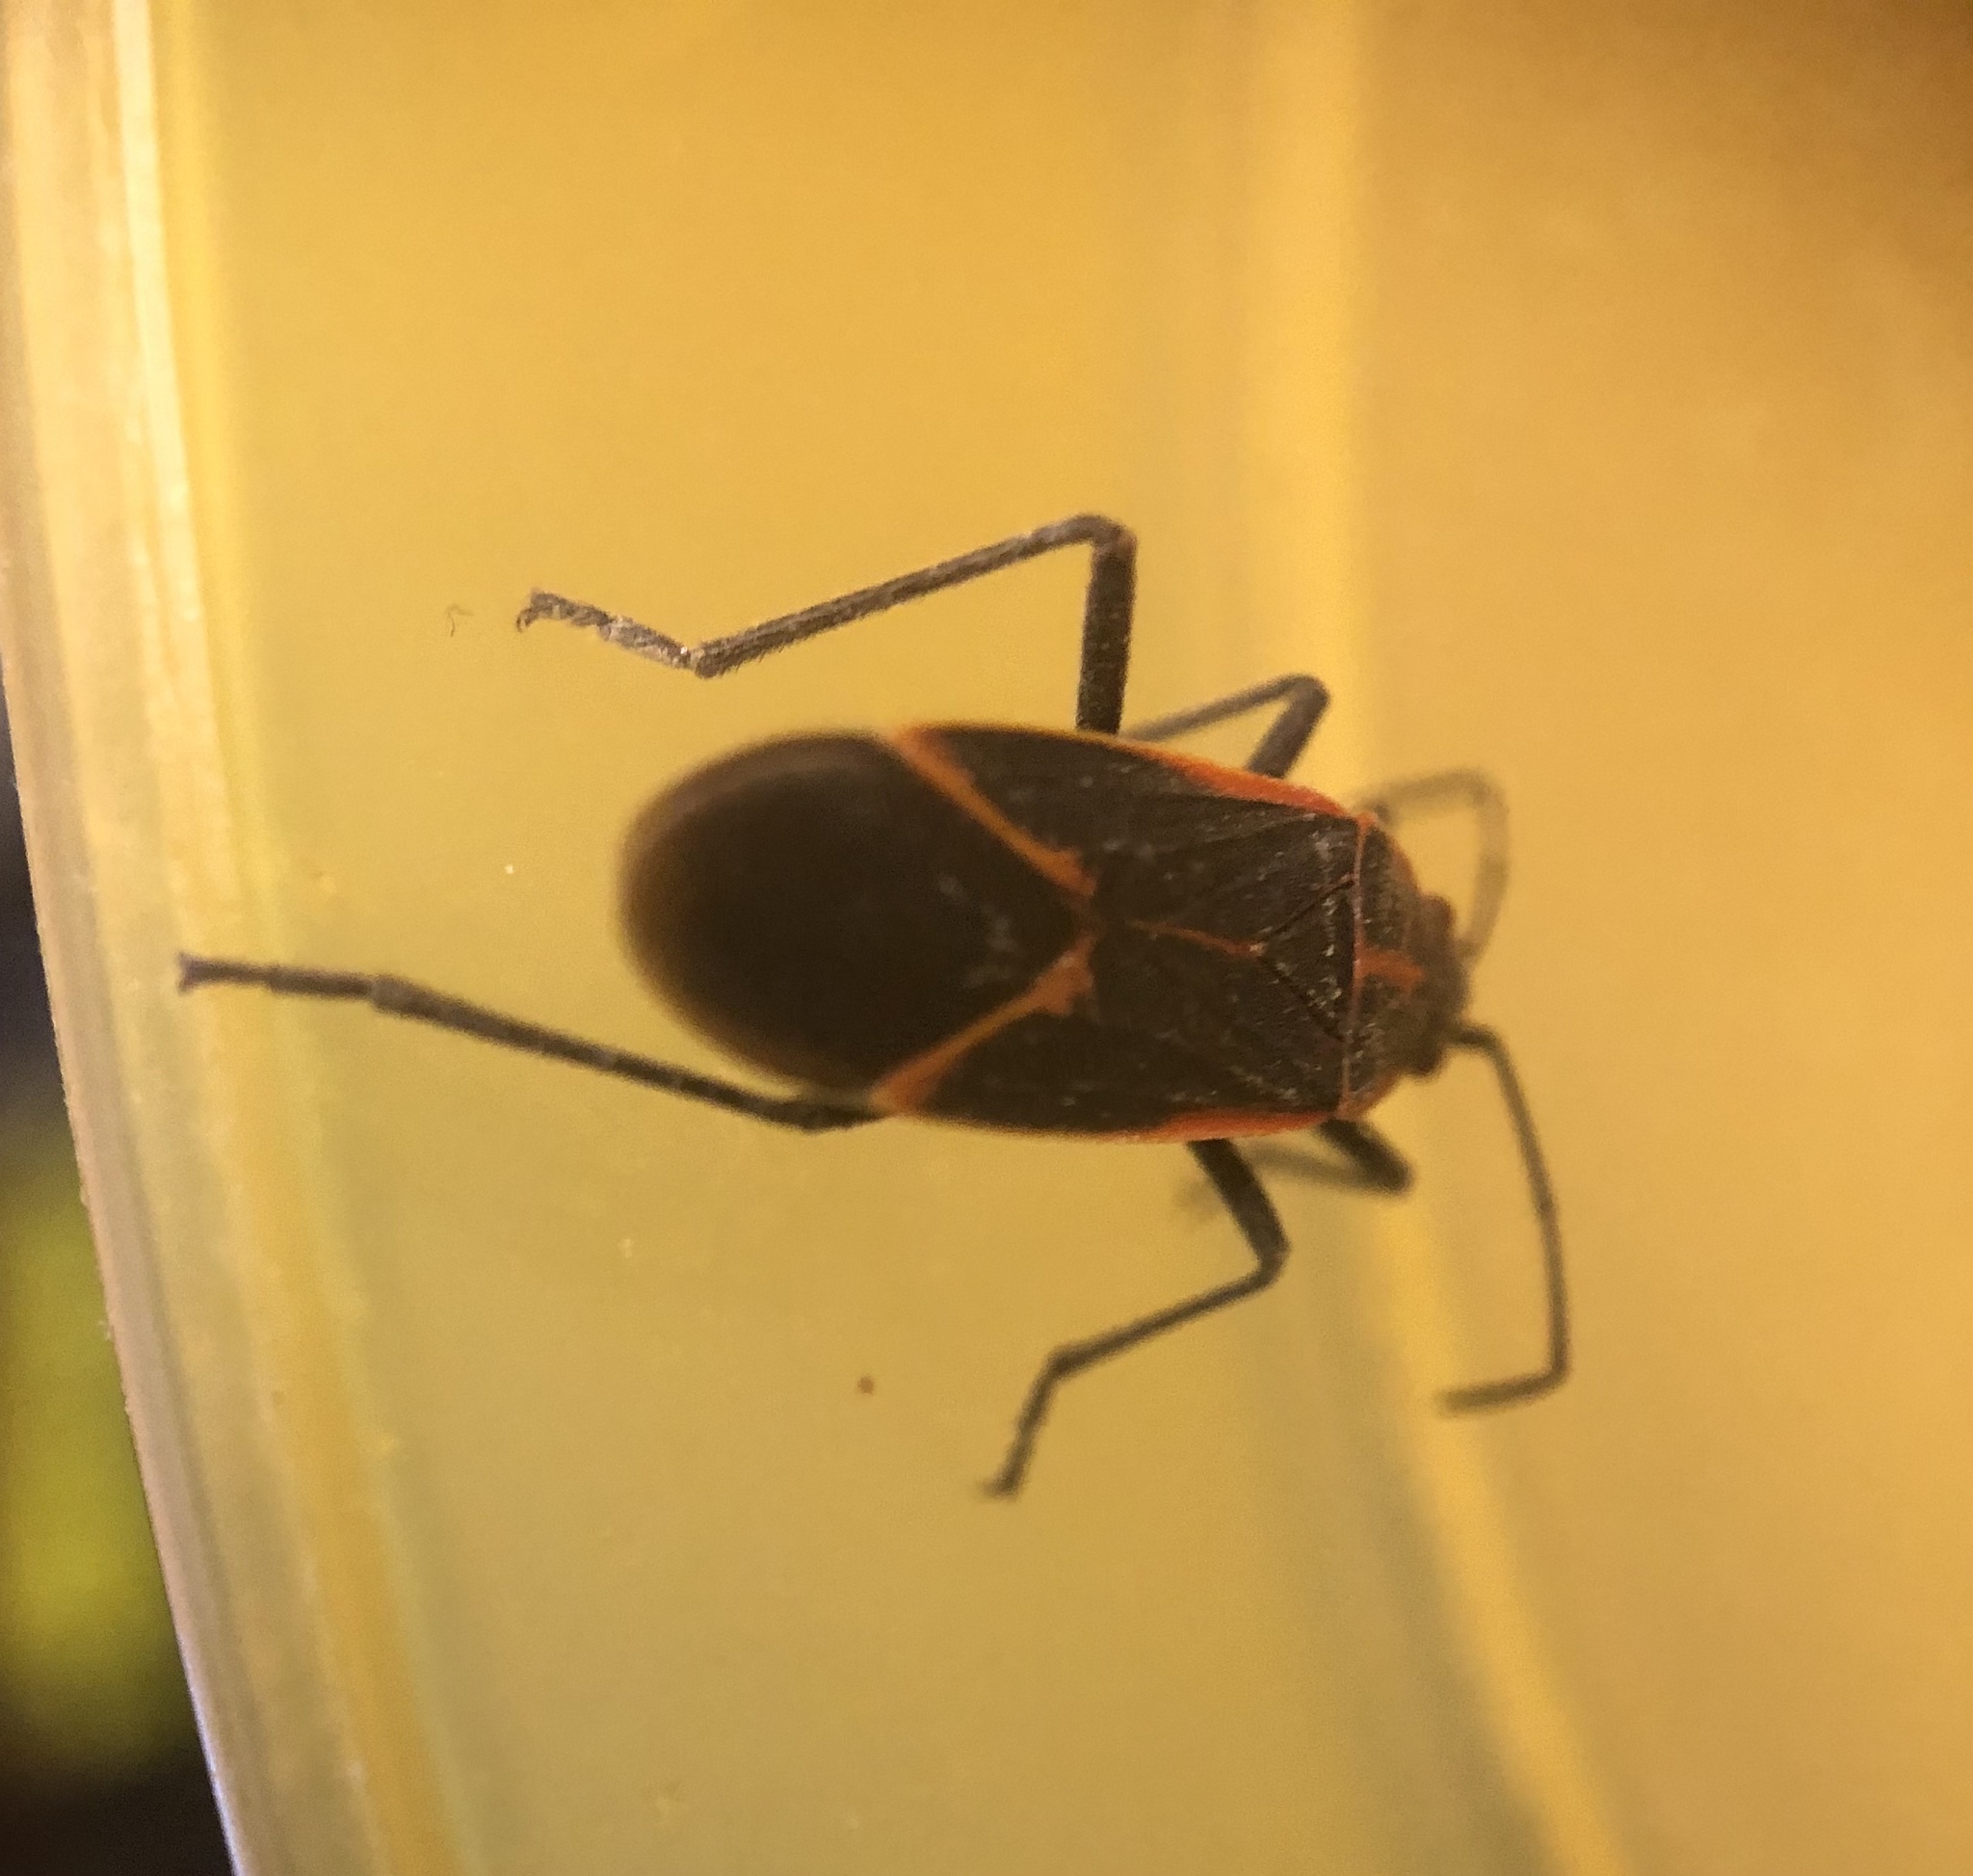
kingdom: Animalia
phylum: Arthropoda
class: Insecta
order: Hemiptera
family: Rhopalidae
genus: Boisea
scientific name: Boisea trivittata
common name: Boxelder bug
